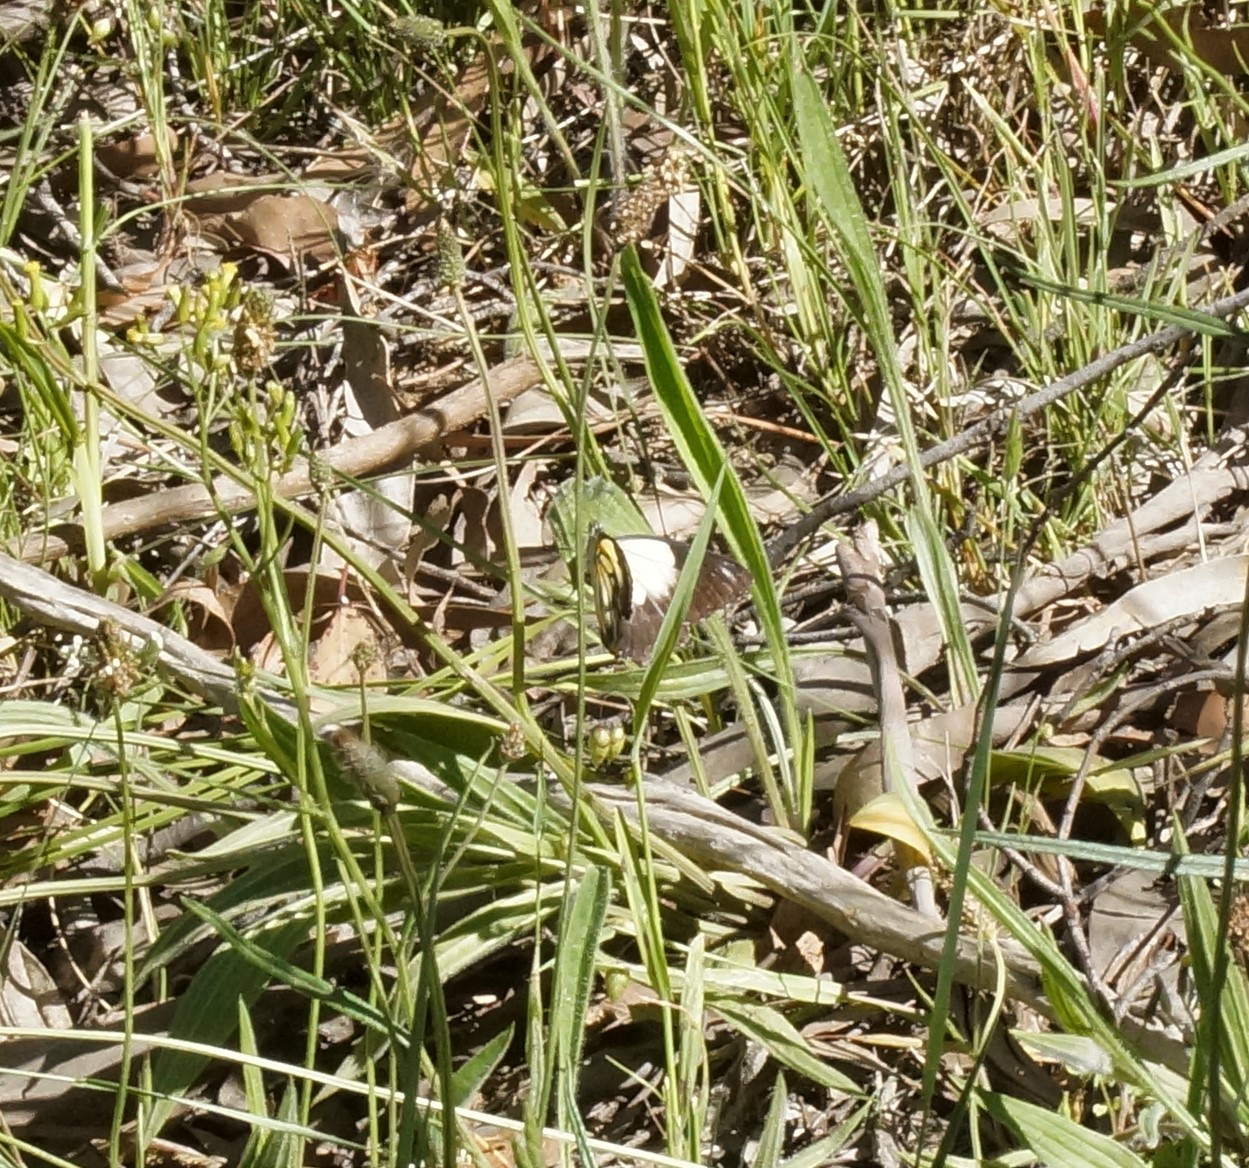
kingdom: Animalia
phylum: Arthropoda
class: Insecta
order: Lepidoptera
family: Pieridae
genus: Belenois
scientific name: Belenois java
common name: Caper white
